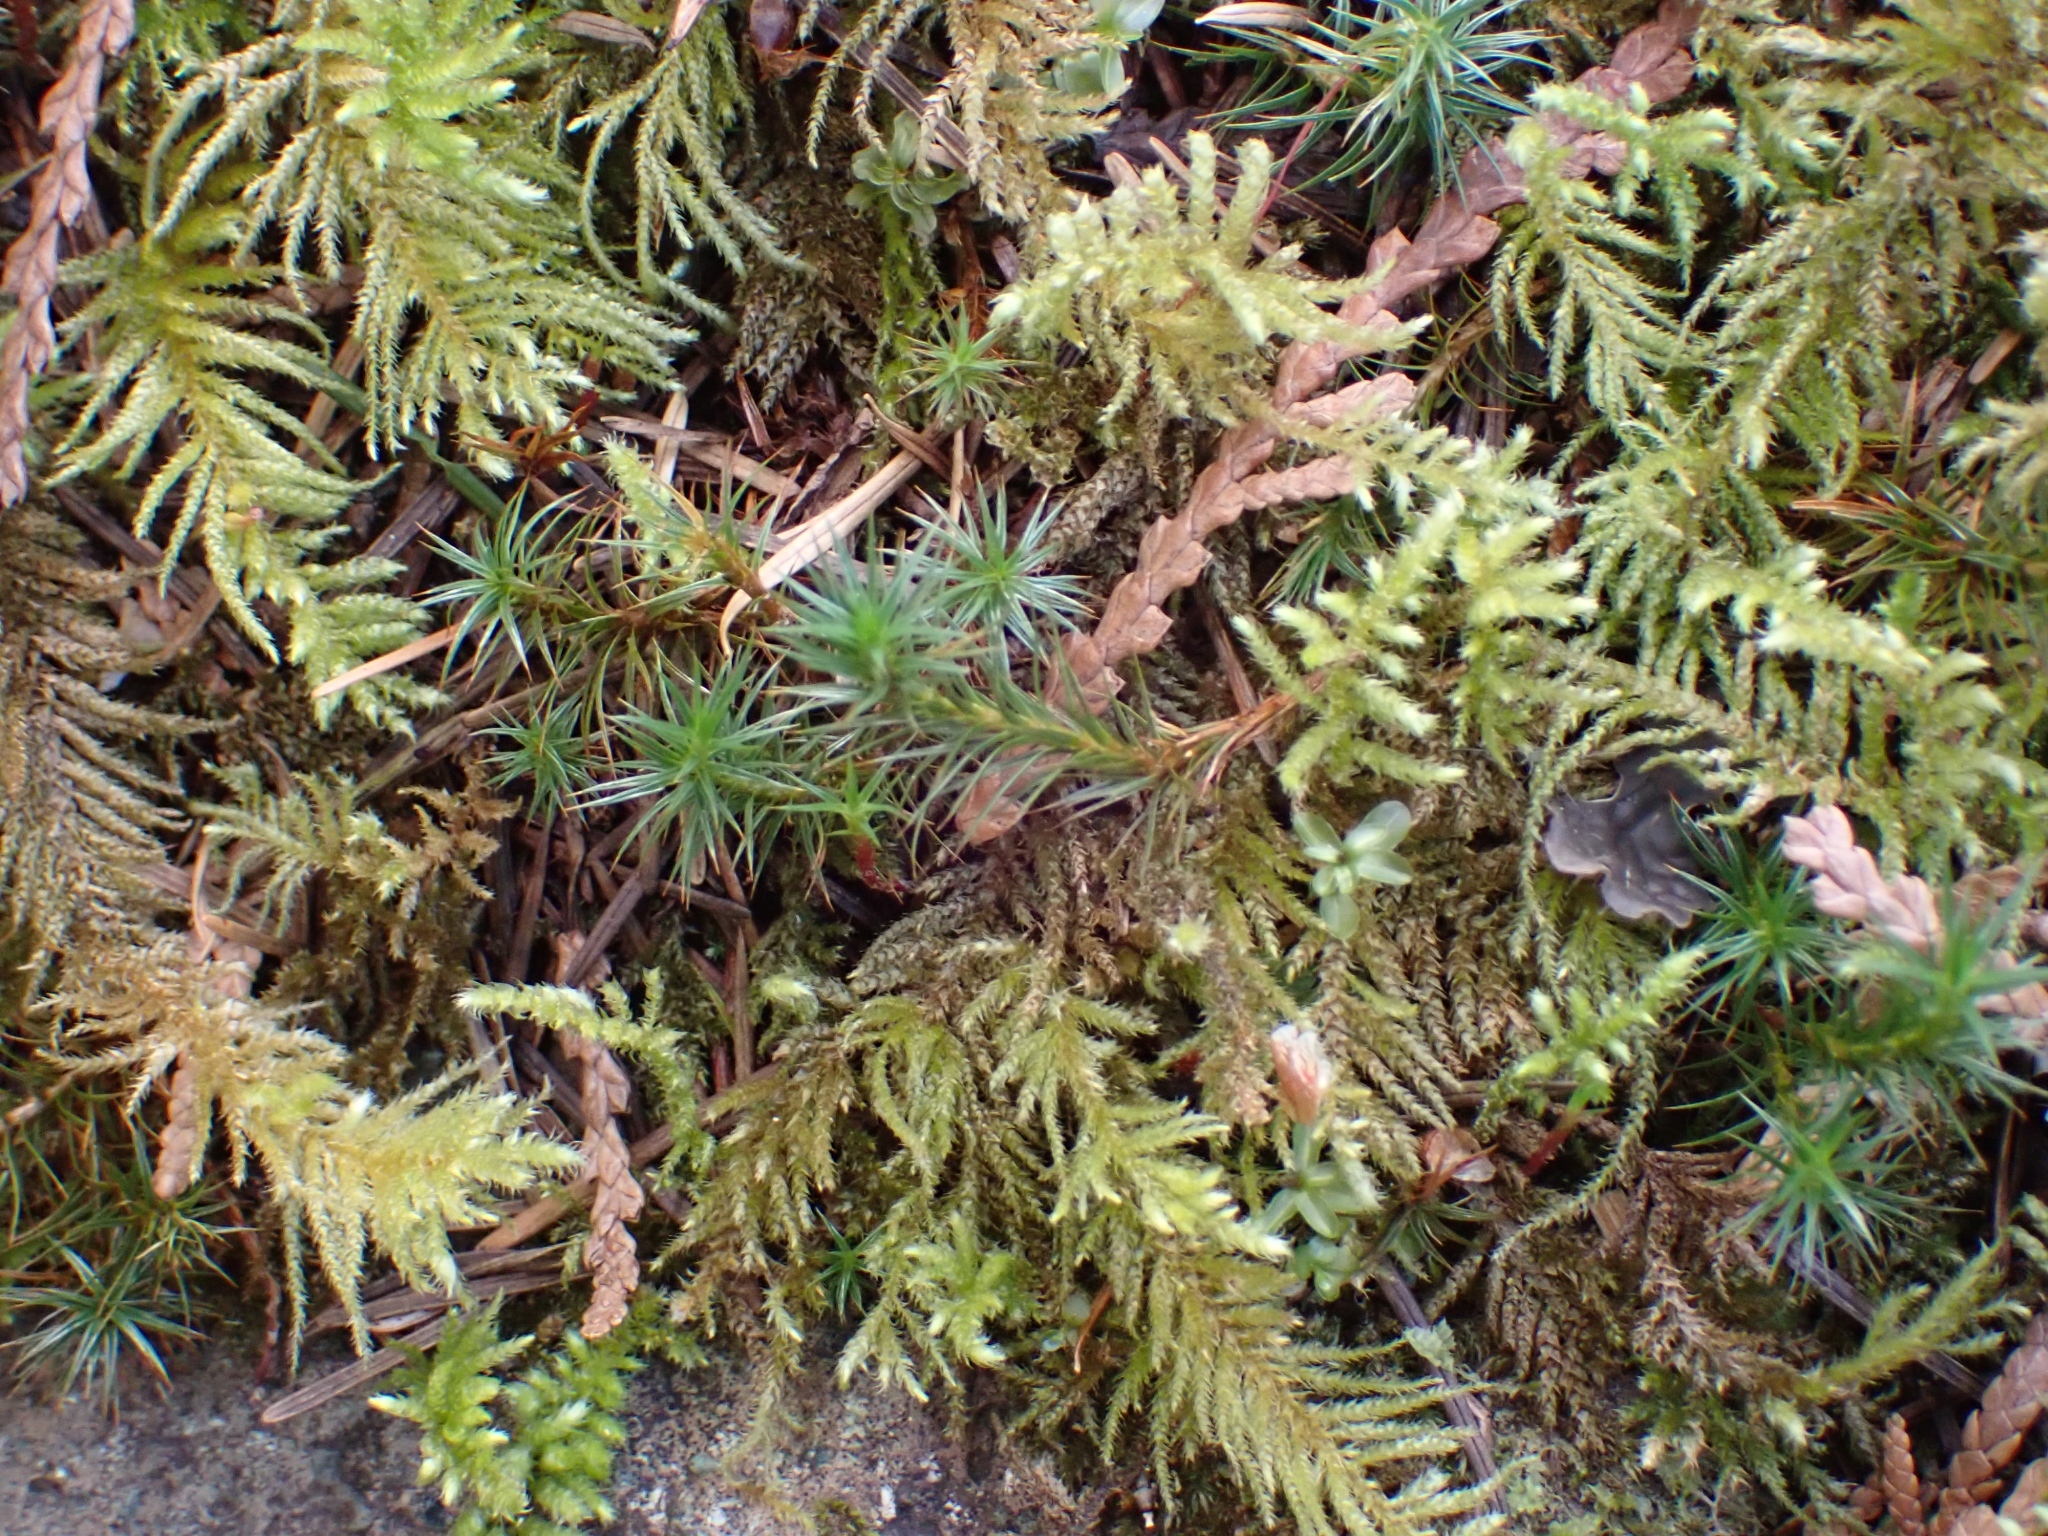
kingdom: Plantae
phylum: Bryophyta
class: Polytrichopsida
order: Polytrichales
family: Polytrichaceae
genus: Polytrichum
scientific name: Polytrichum juniperinum
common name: Juniper haircap moss
